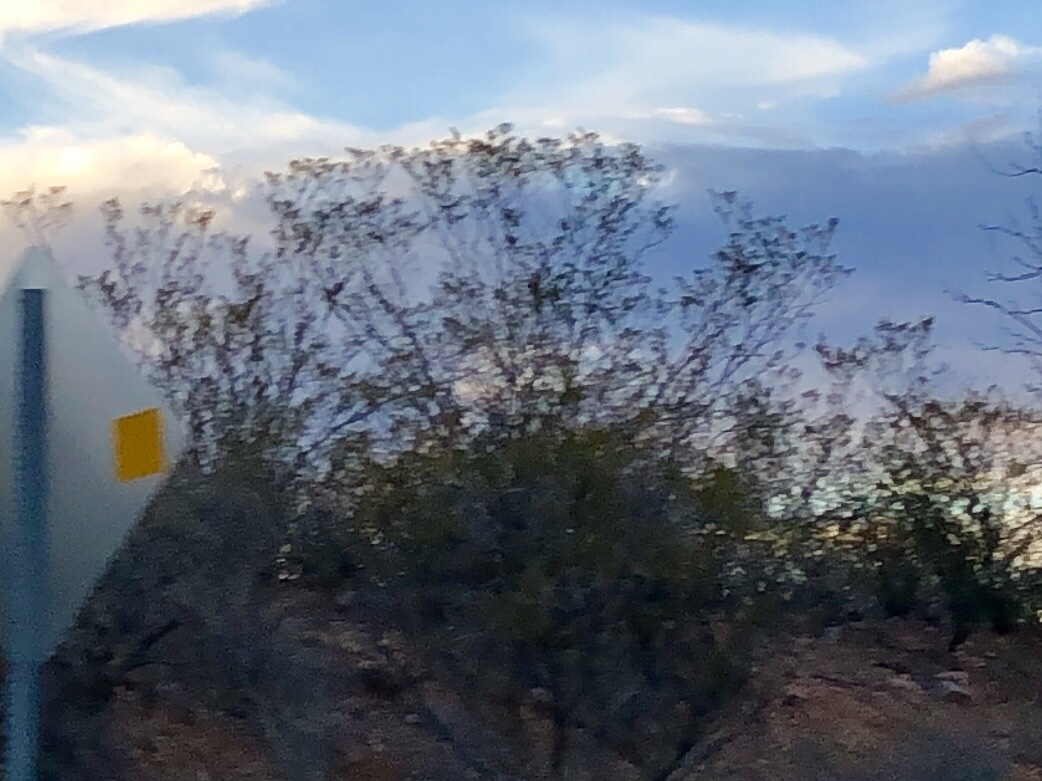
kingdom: Plantae
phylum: Tracheophyta
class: Magnoliopsida
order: Zygophyllales
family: Zygophyllaceae
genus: Larrea
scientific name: Larrea tridentata
